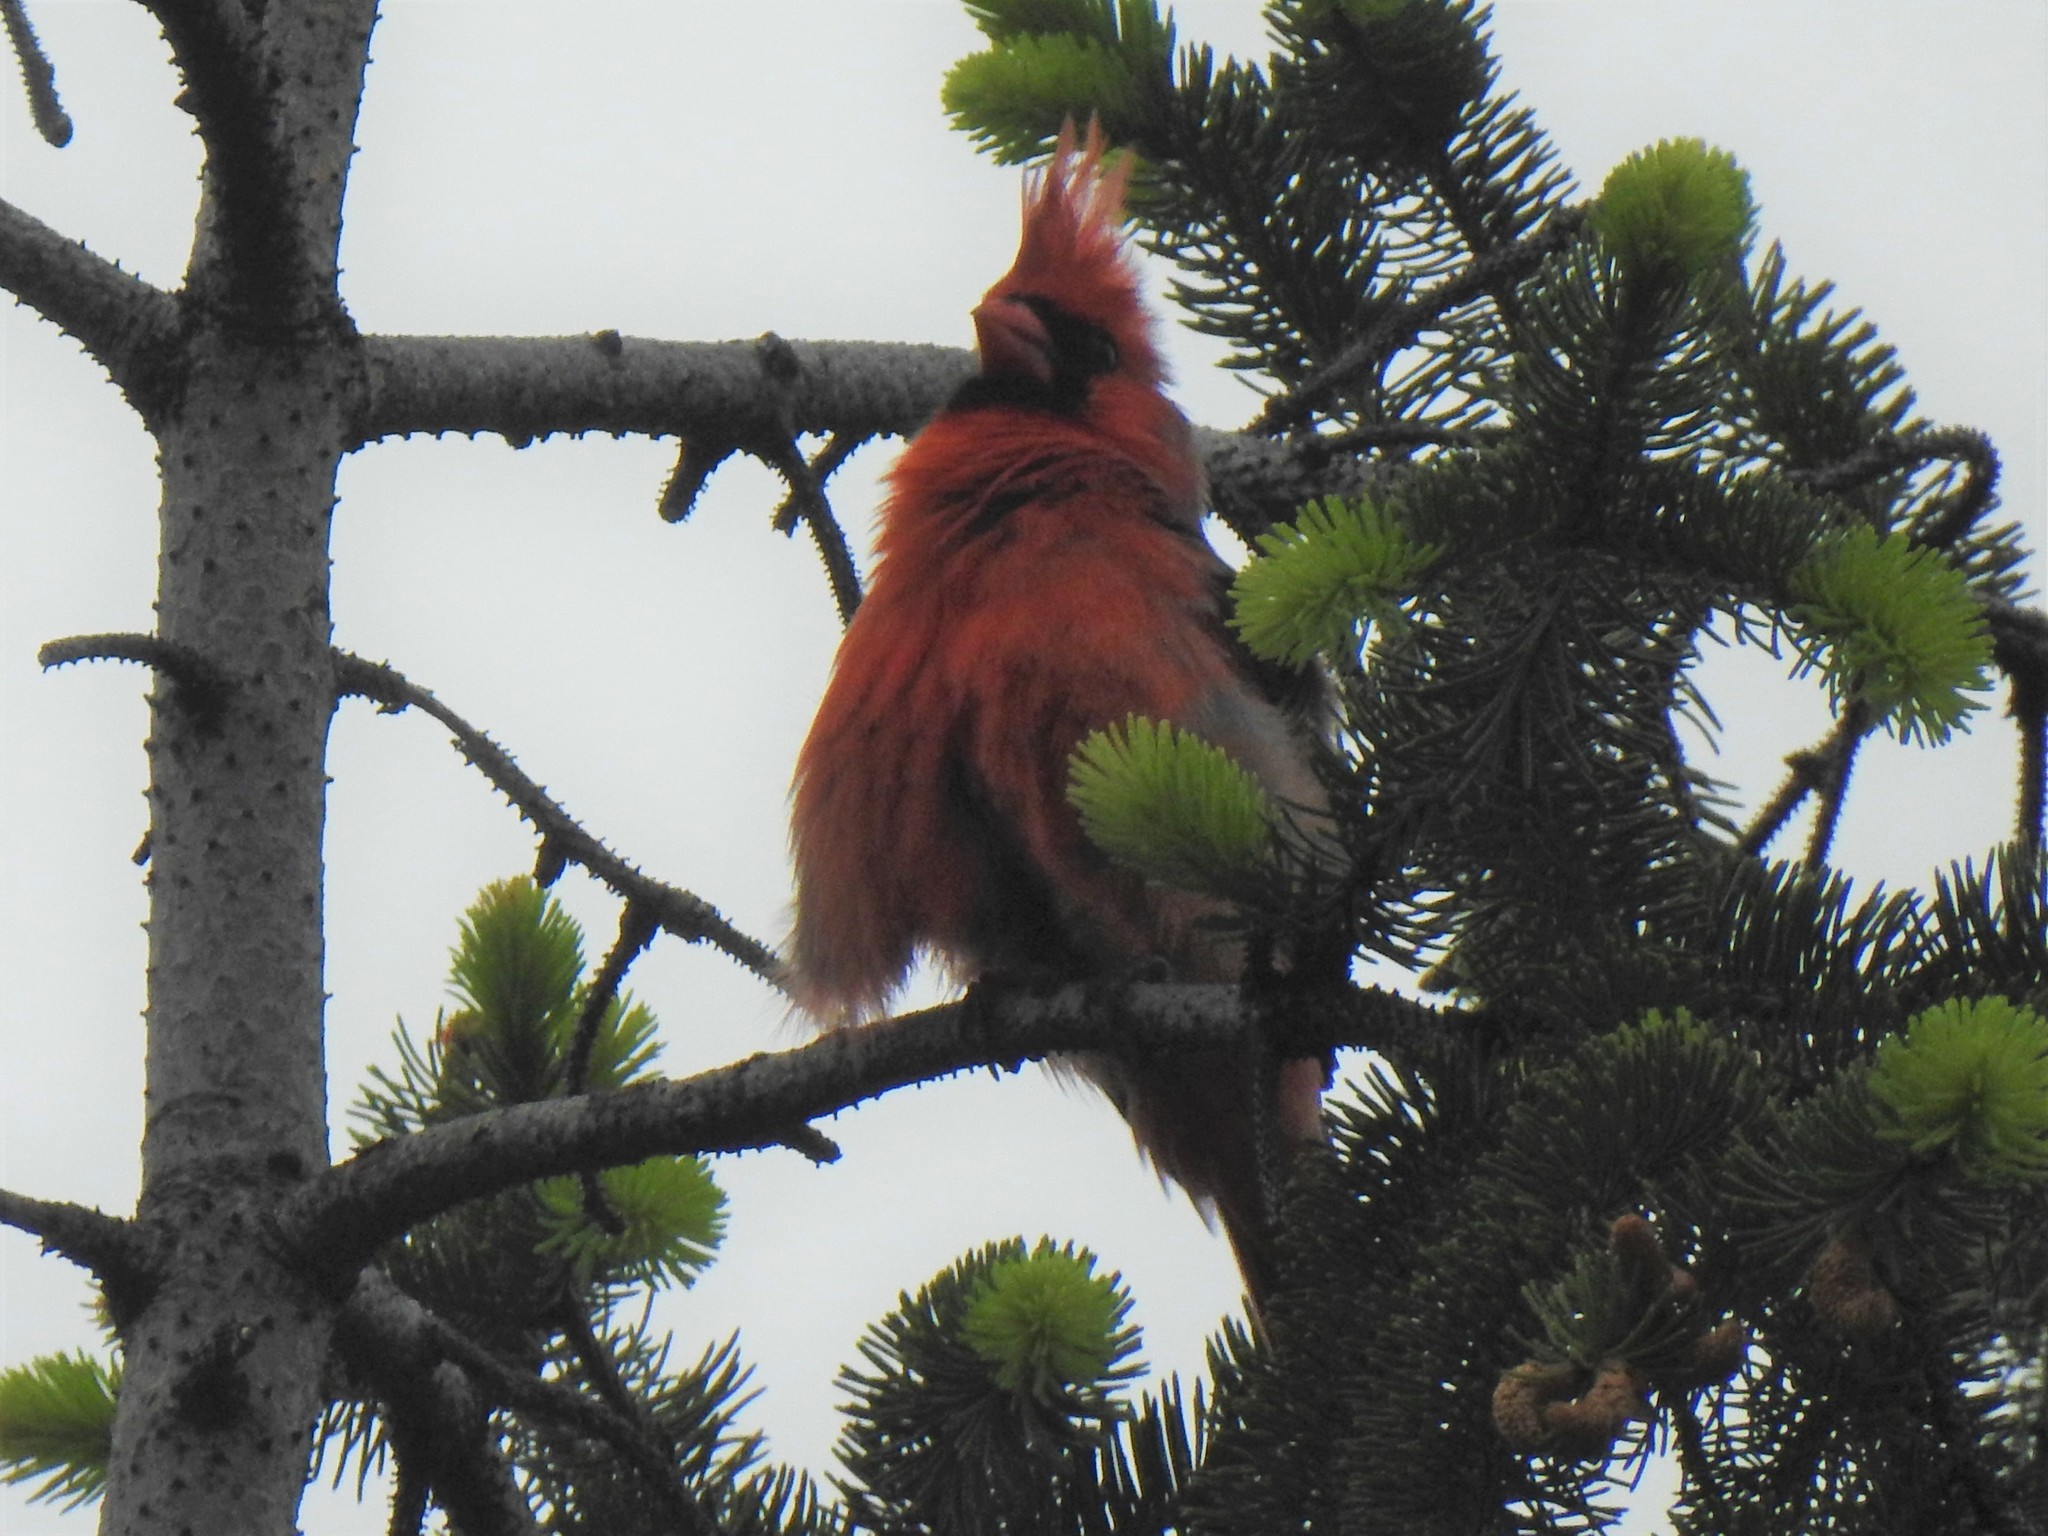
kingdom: Animalia
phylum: Chordata
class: Aves
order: Passeriformes
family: Cardinalidae
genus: Cardinalis
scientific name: Cardinalis cardinalis
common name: Northern cardinal
